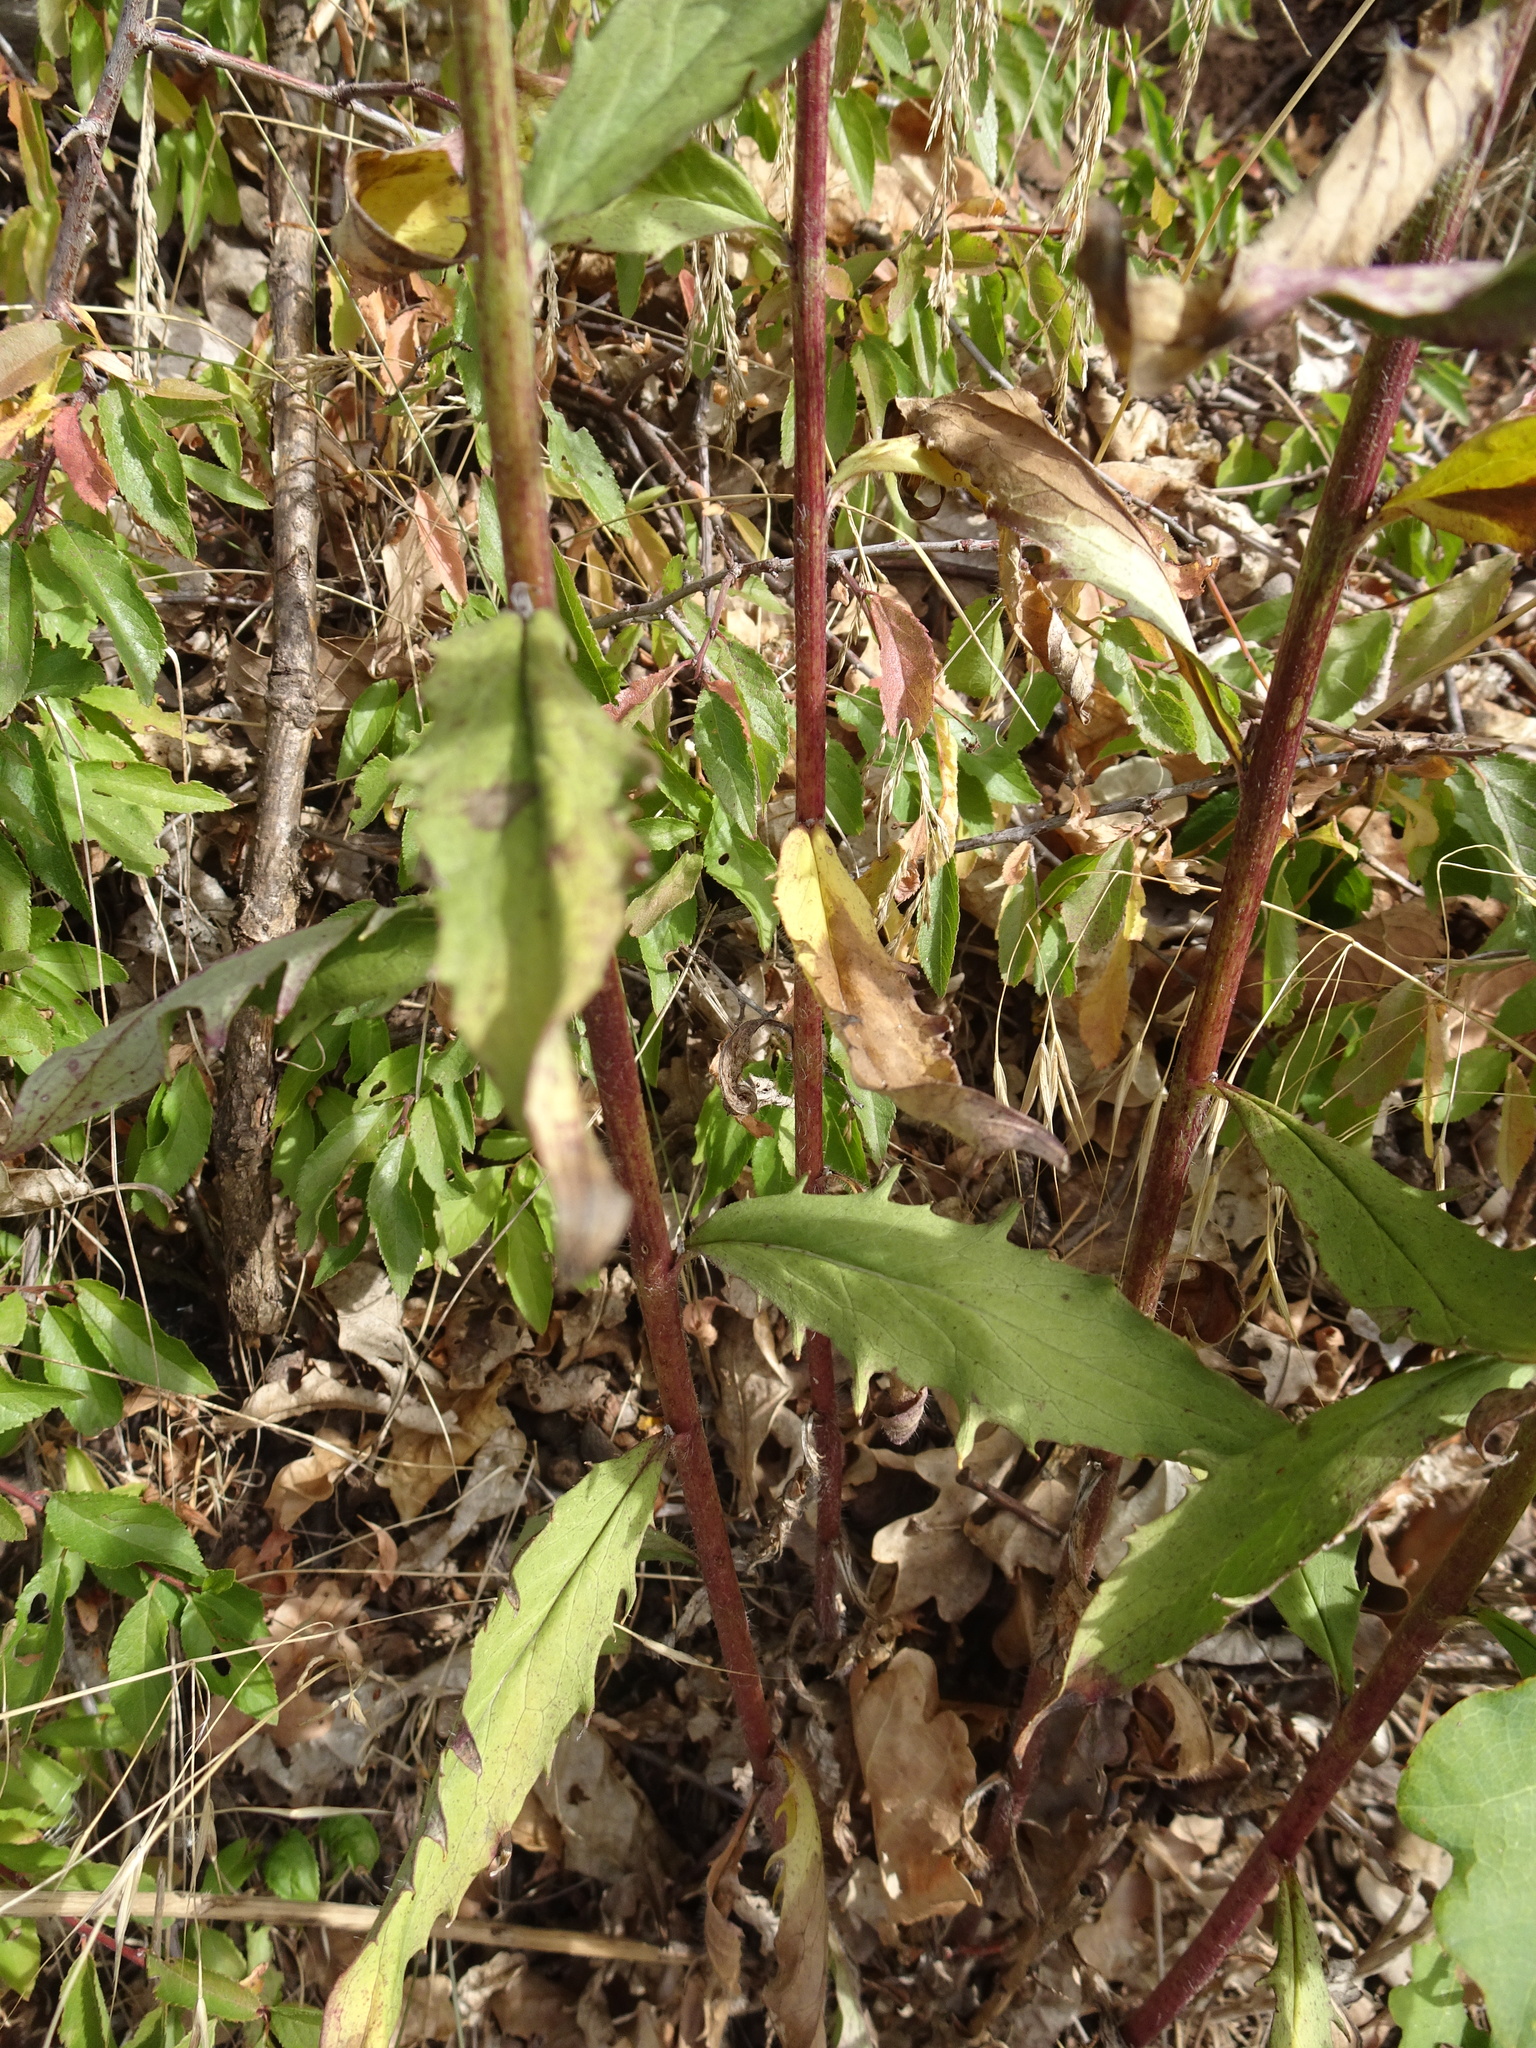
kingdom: Plantae
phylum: Tracheophyta
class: Magnoliopsida
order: Asterales
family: Asteraceae
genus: Hieracium
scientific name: Hieracium umbellatum
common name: Northern hawkweed
